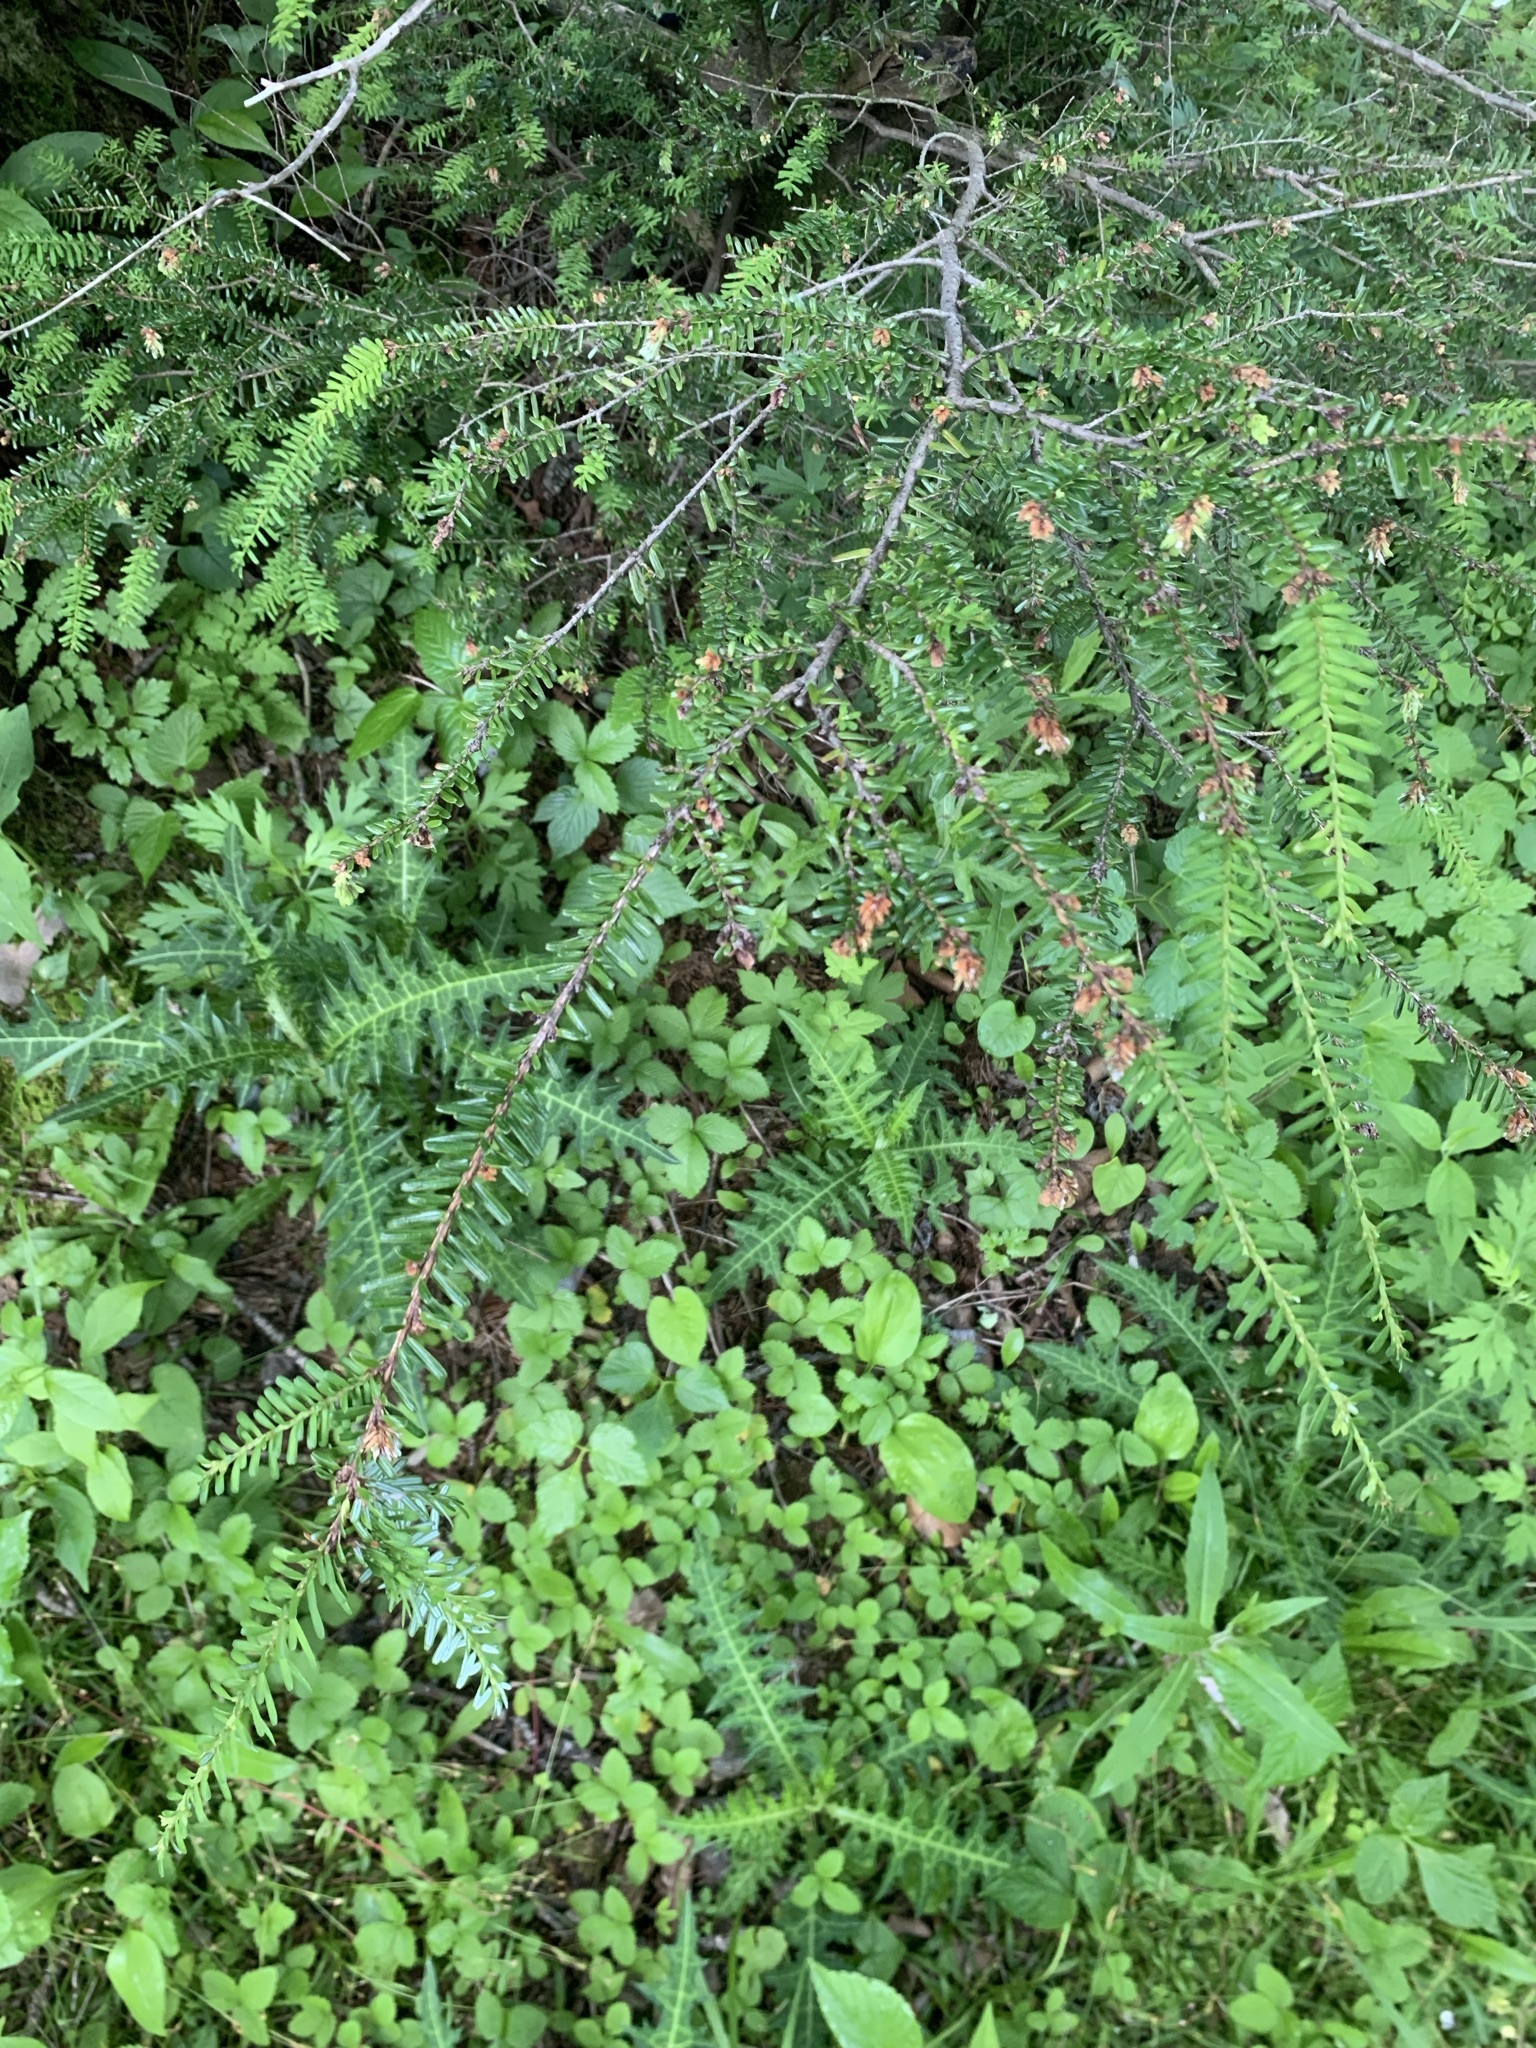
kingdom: Plantae
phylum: Tracheophyta
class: Pinopsida
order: Pinales
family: Pinaceae
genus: Tsuga
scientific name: Tsuga diversifolia
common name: Northern japanese hemlock
